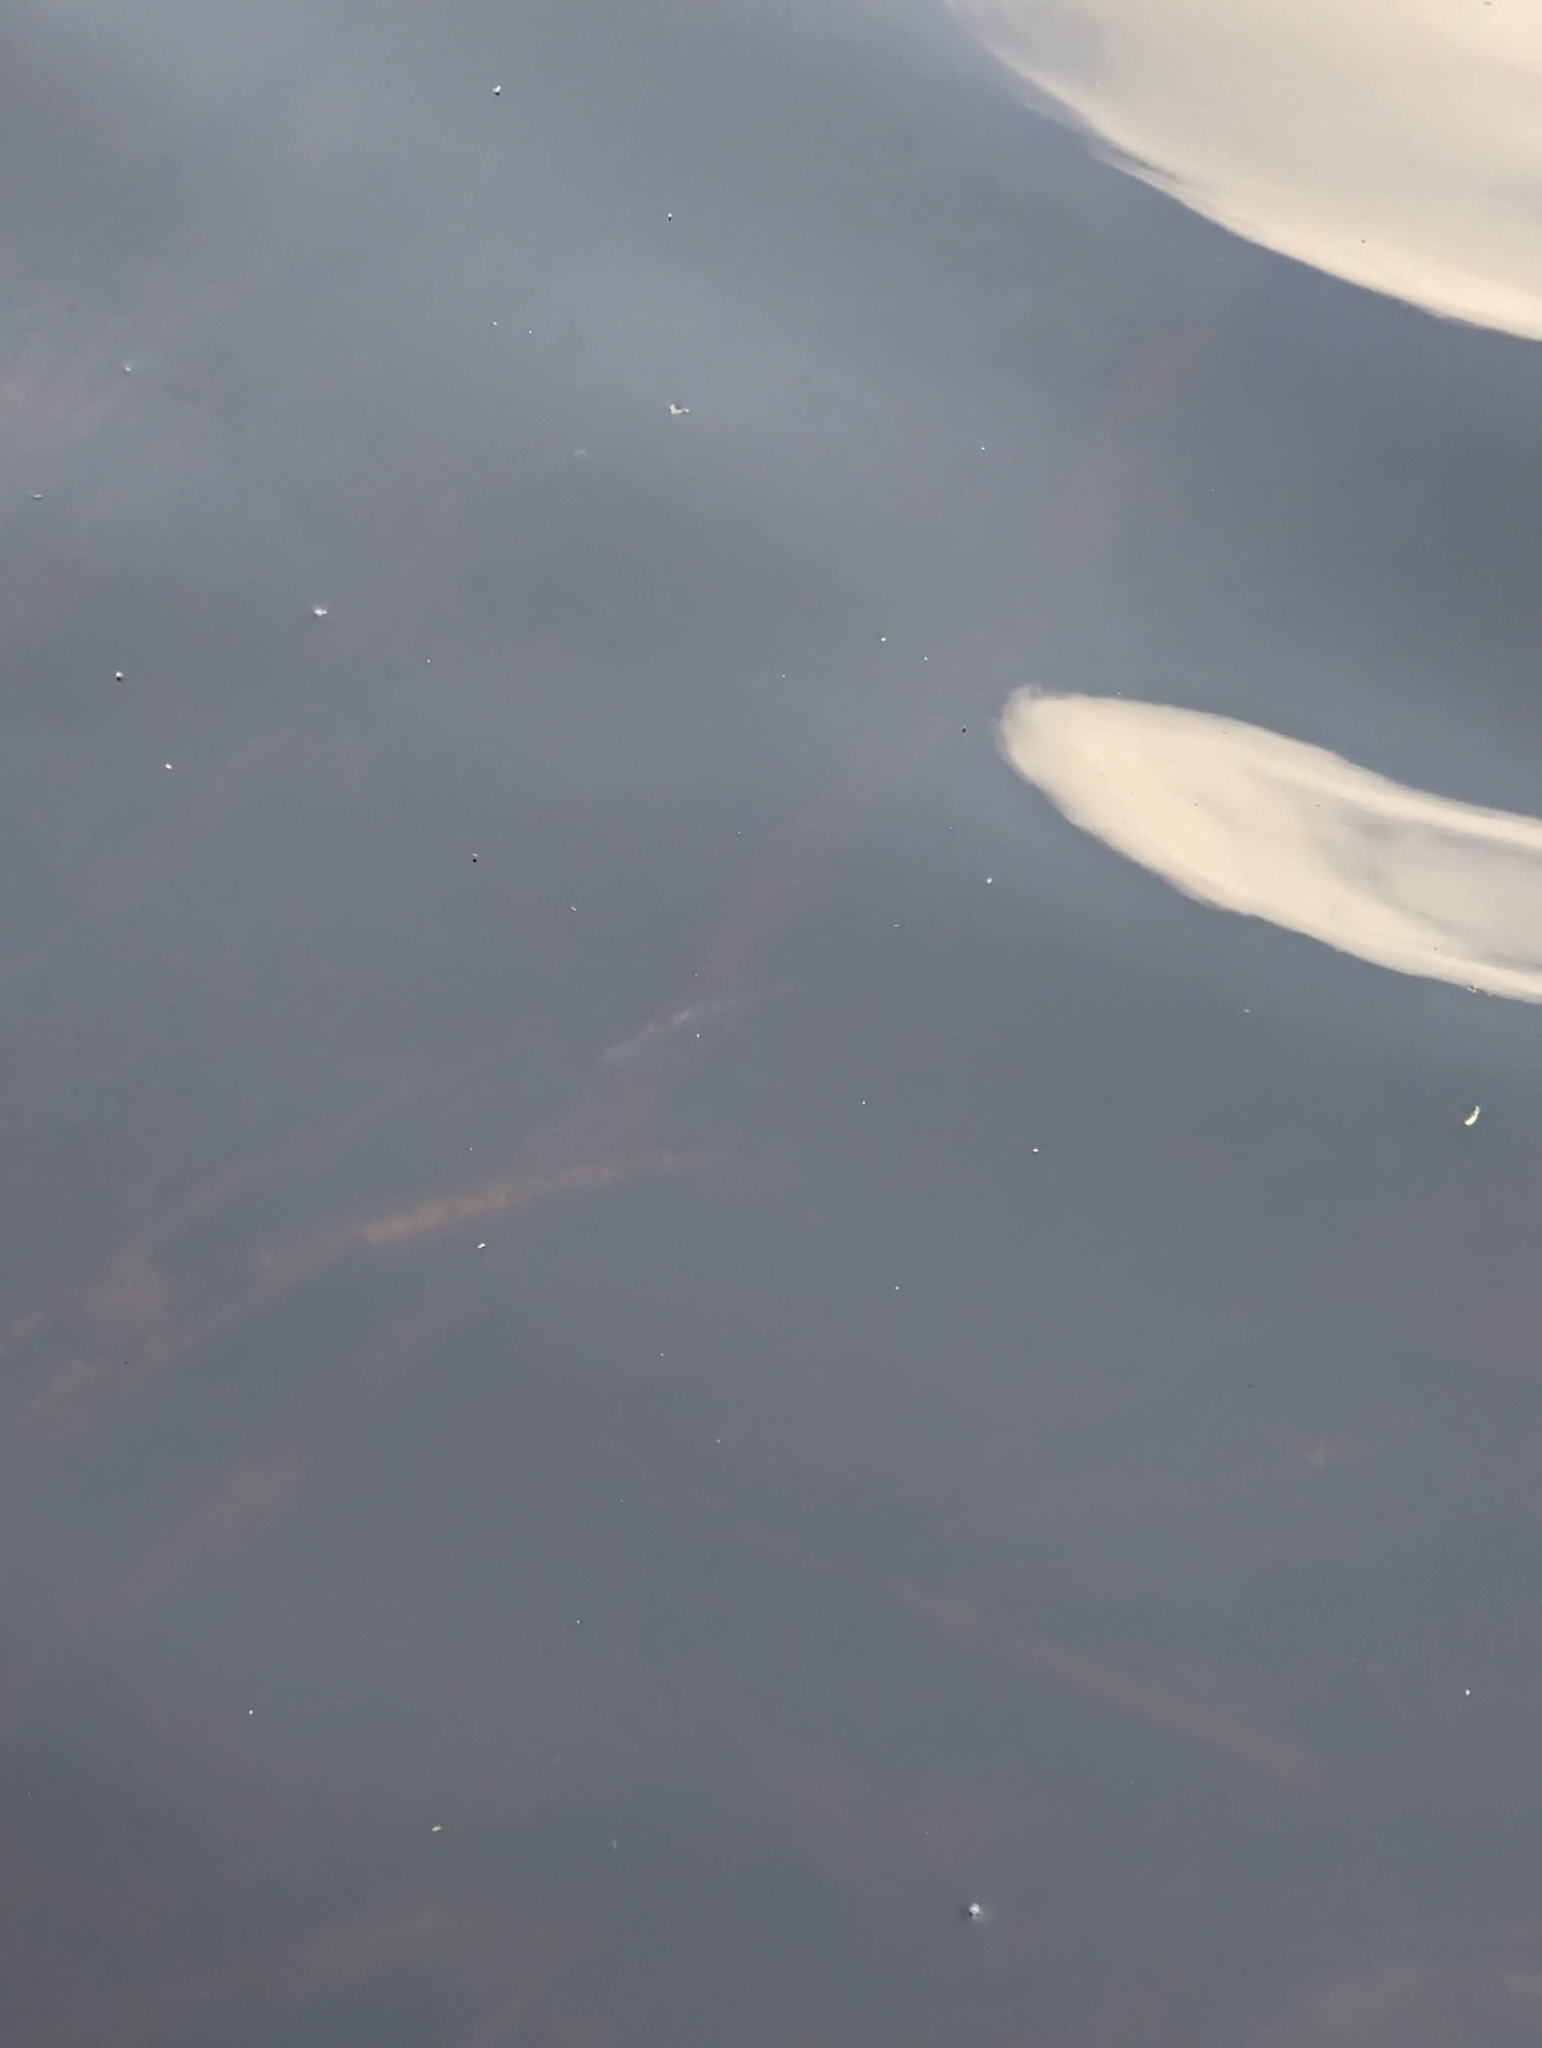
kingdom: Animalia
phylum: Chordata
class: Amphibia
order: Caudata
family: Salamandridae
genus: Notophthalmus
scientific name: Notophthalmus viridescens
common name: Eastern newt
